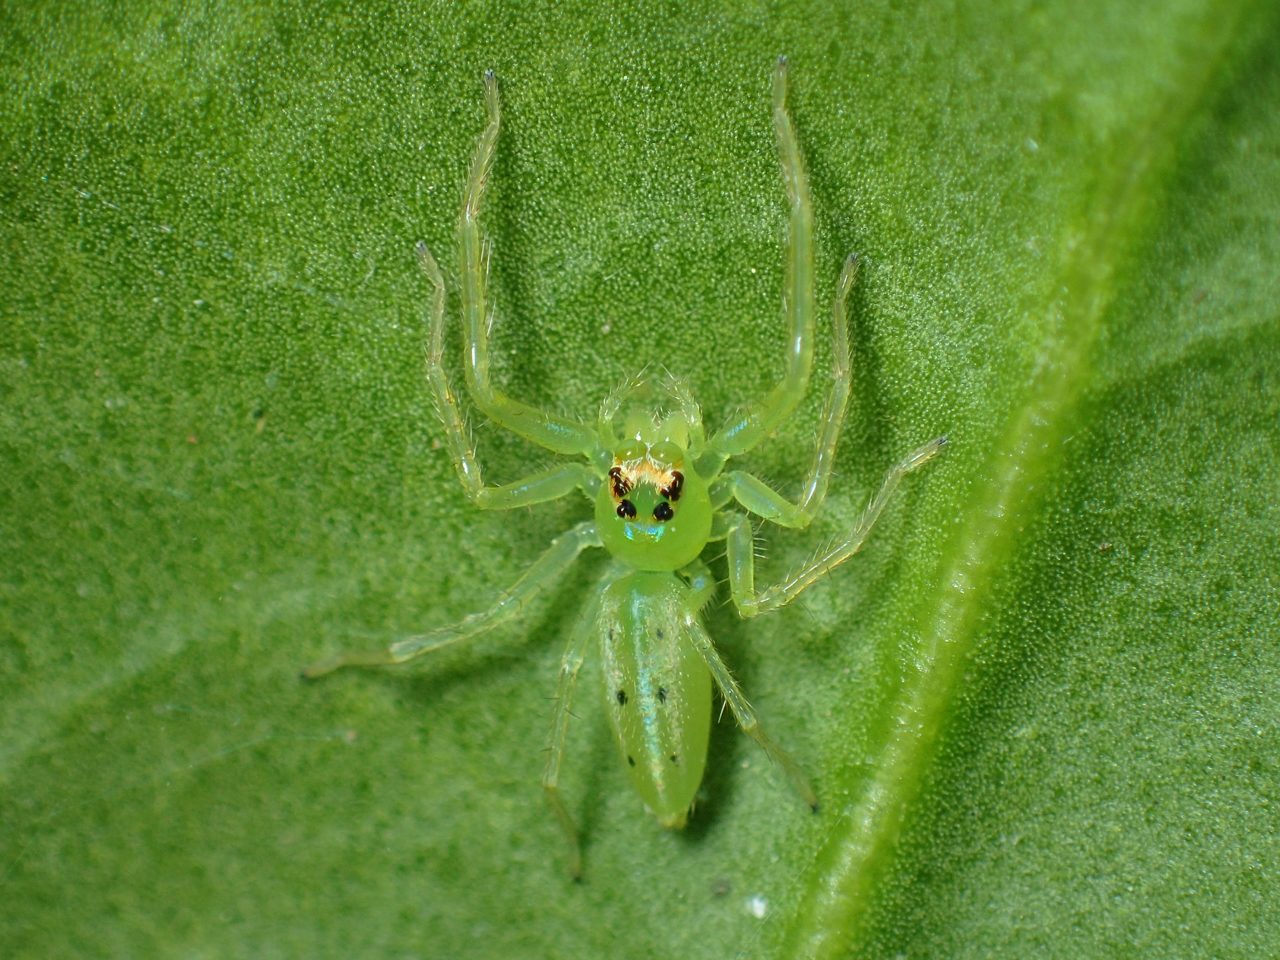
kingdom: Animalia
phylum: Arthropoda
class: Arachnida
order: Araneae
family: Salticidae
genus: Lyssomanes
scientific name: Lyssomanes viridis
